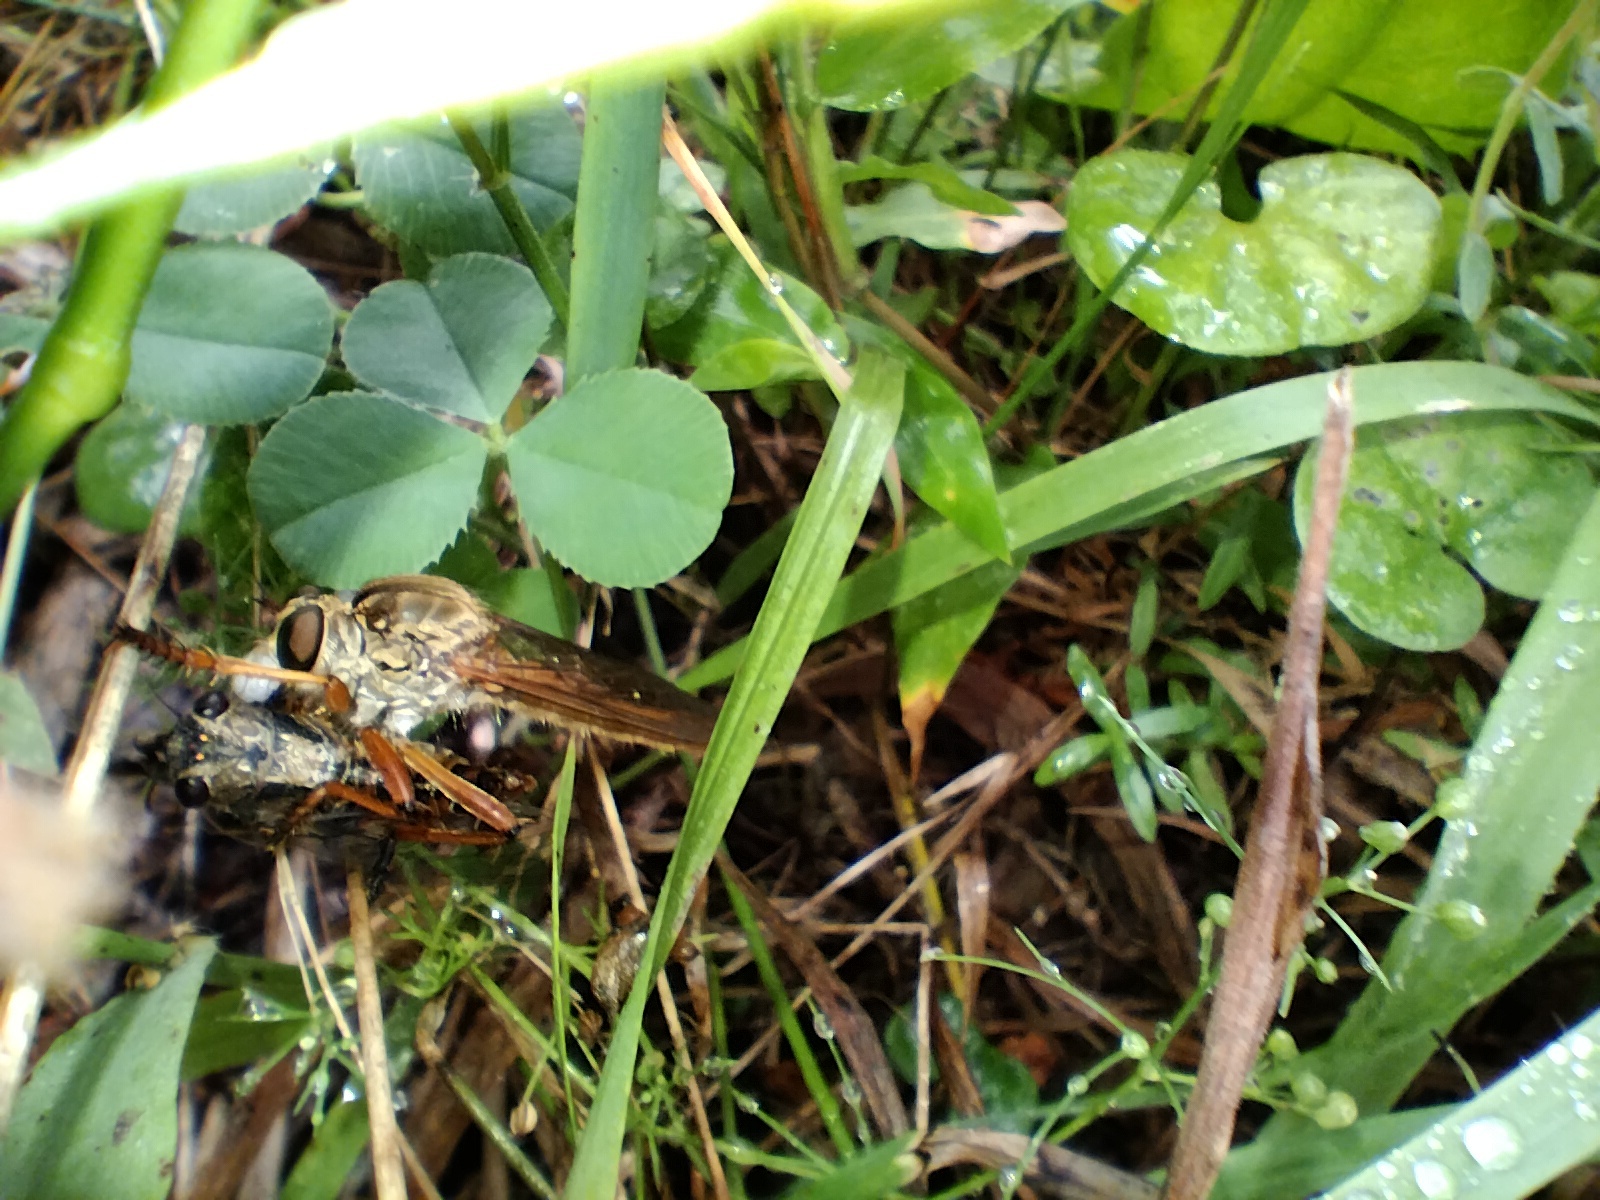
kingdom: Animalia
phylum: Arthropoda
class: Insecta
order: Hemiptera
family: Cicadidae
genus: Yoyetta
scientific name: Yoyetta celis
